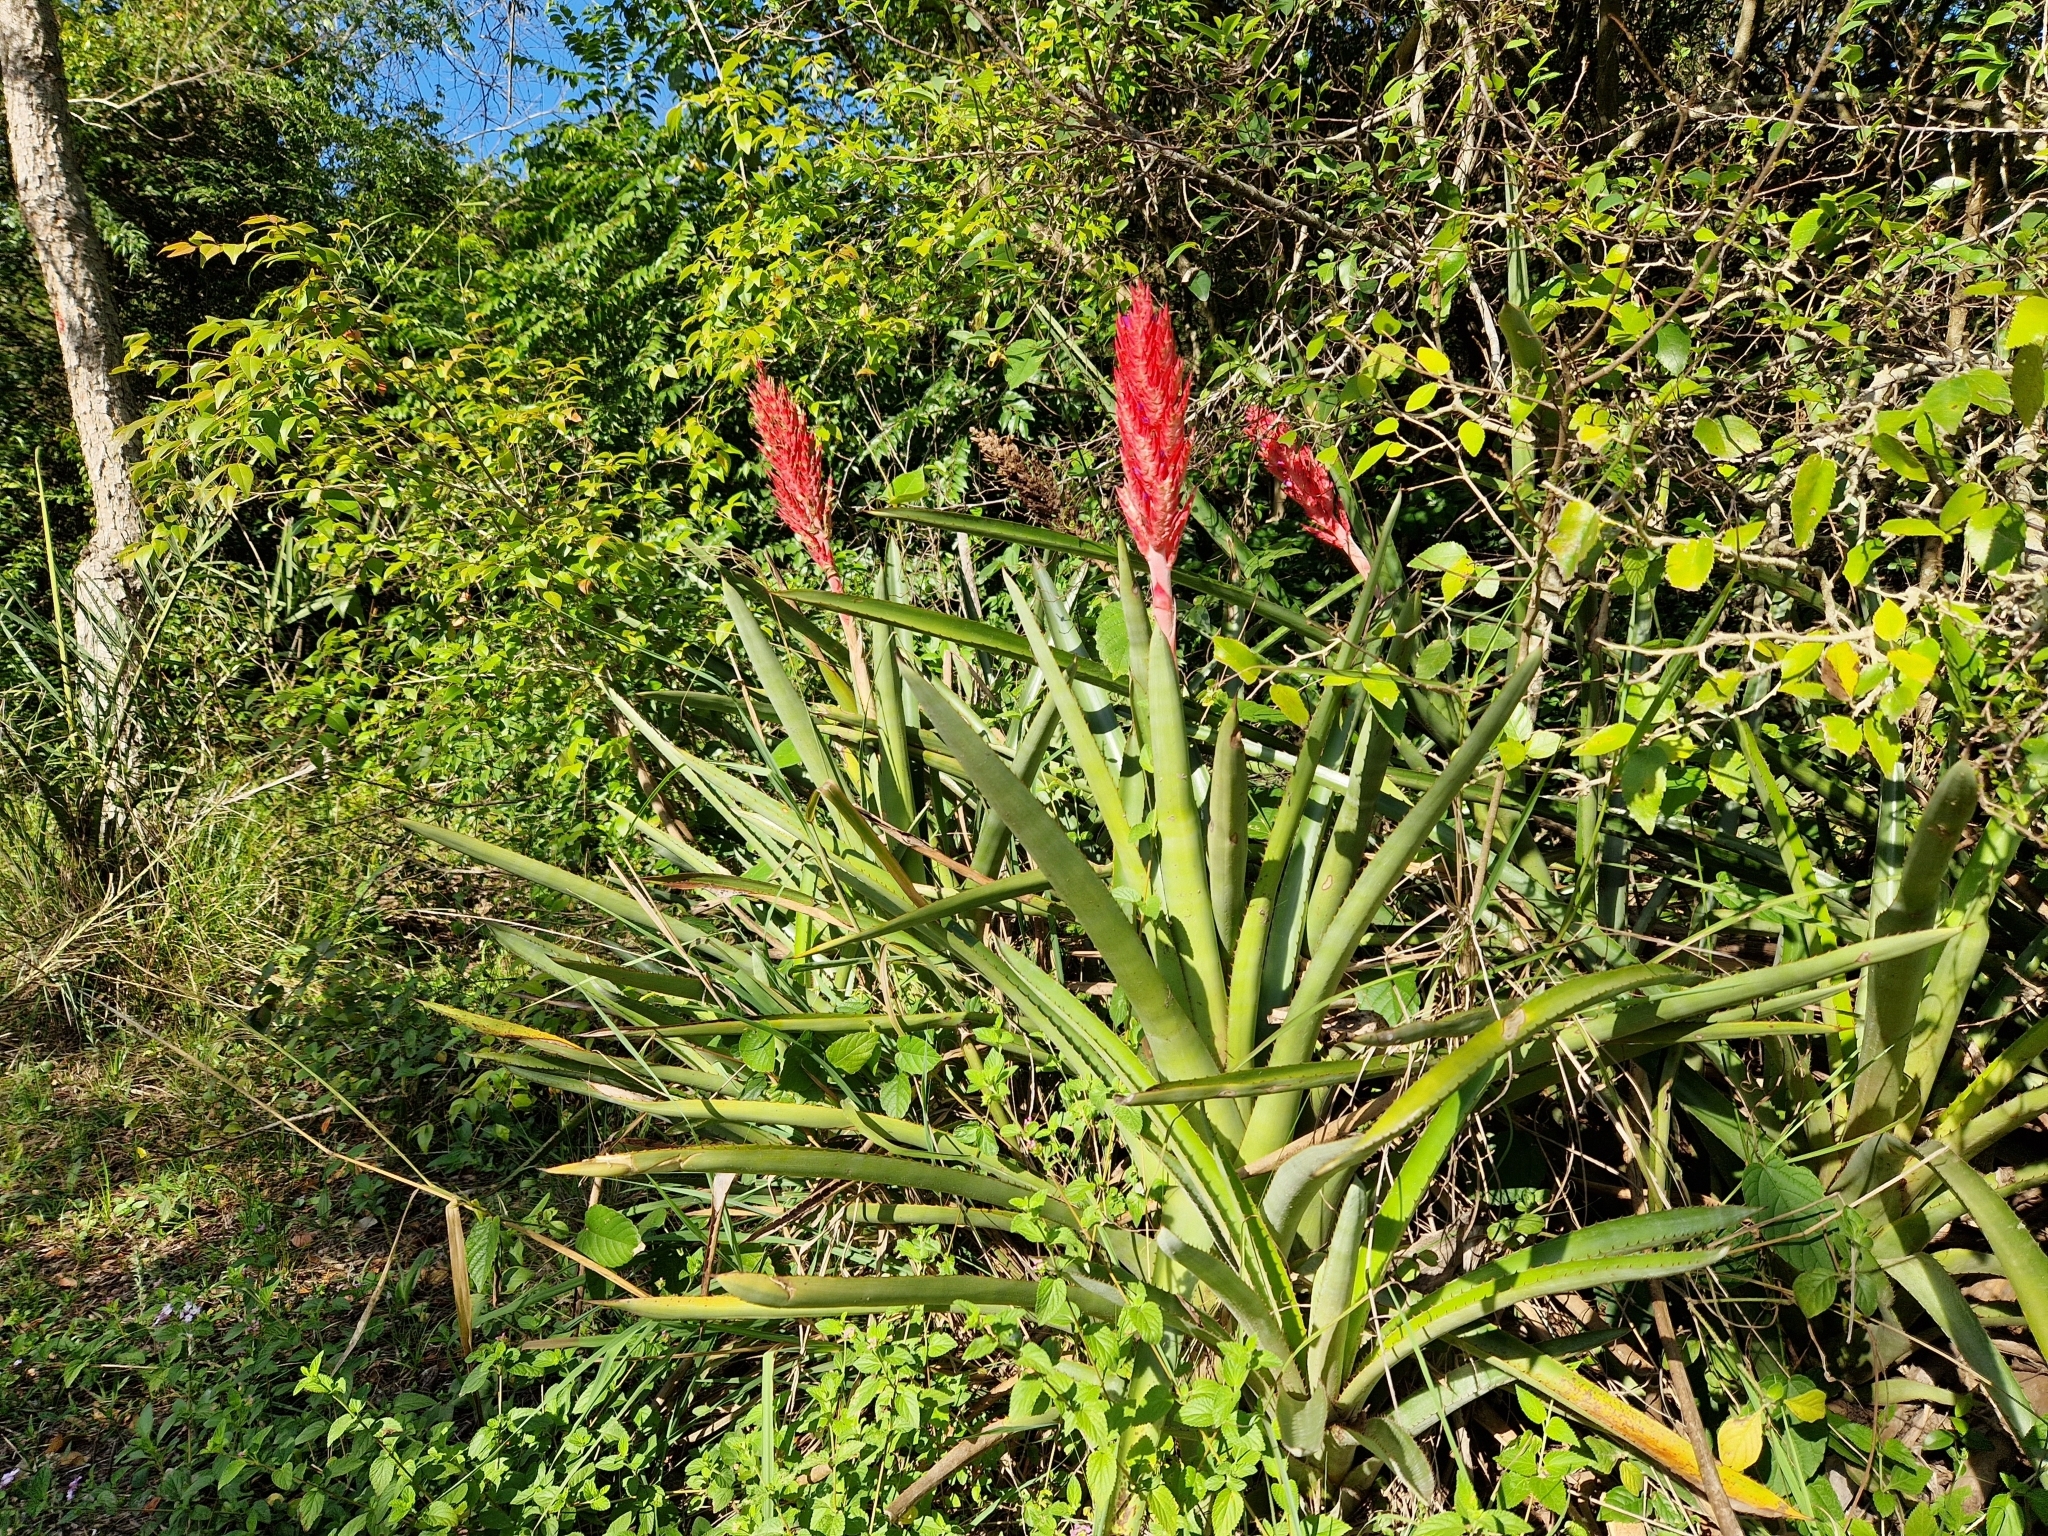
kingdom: Plantae
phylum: Tracheophyta
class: Liliopsida
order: Poales
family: Bromeliaceae
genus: Aechmea
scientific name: Aechmea distichantha
